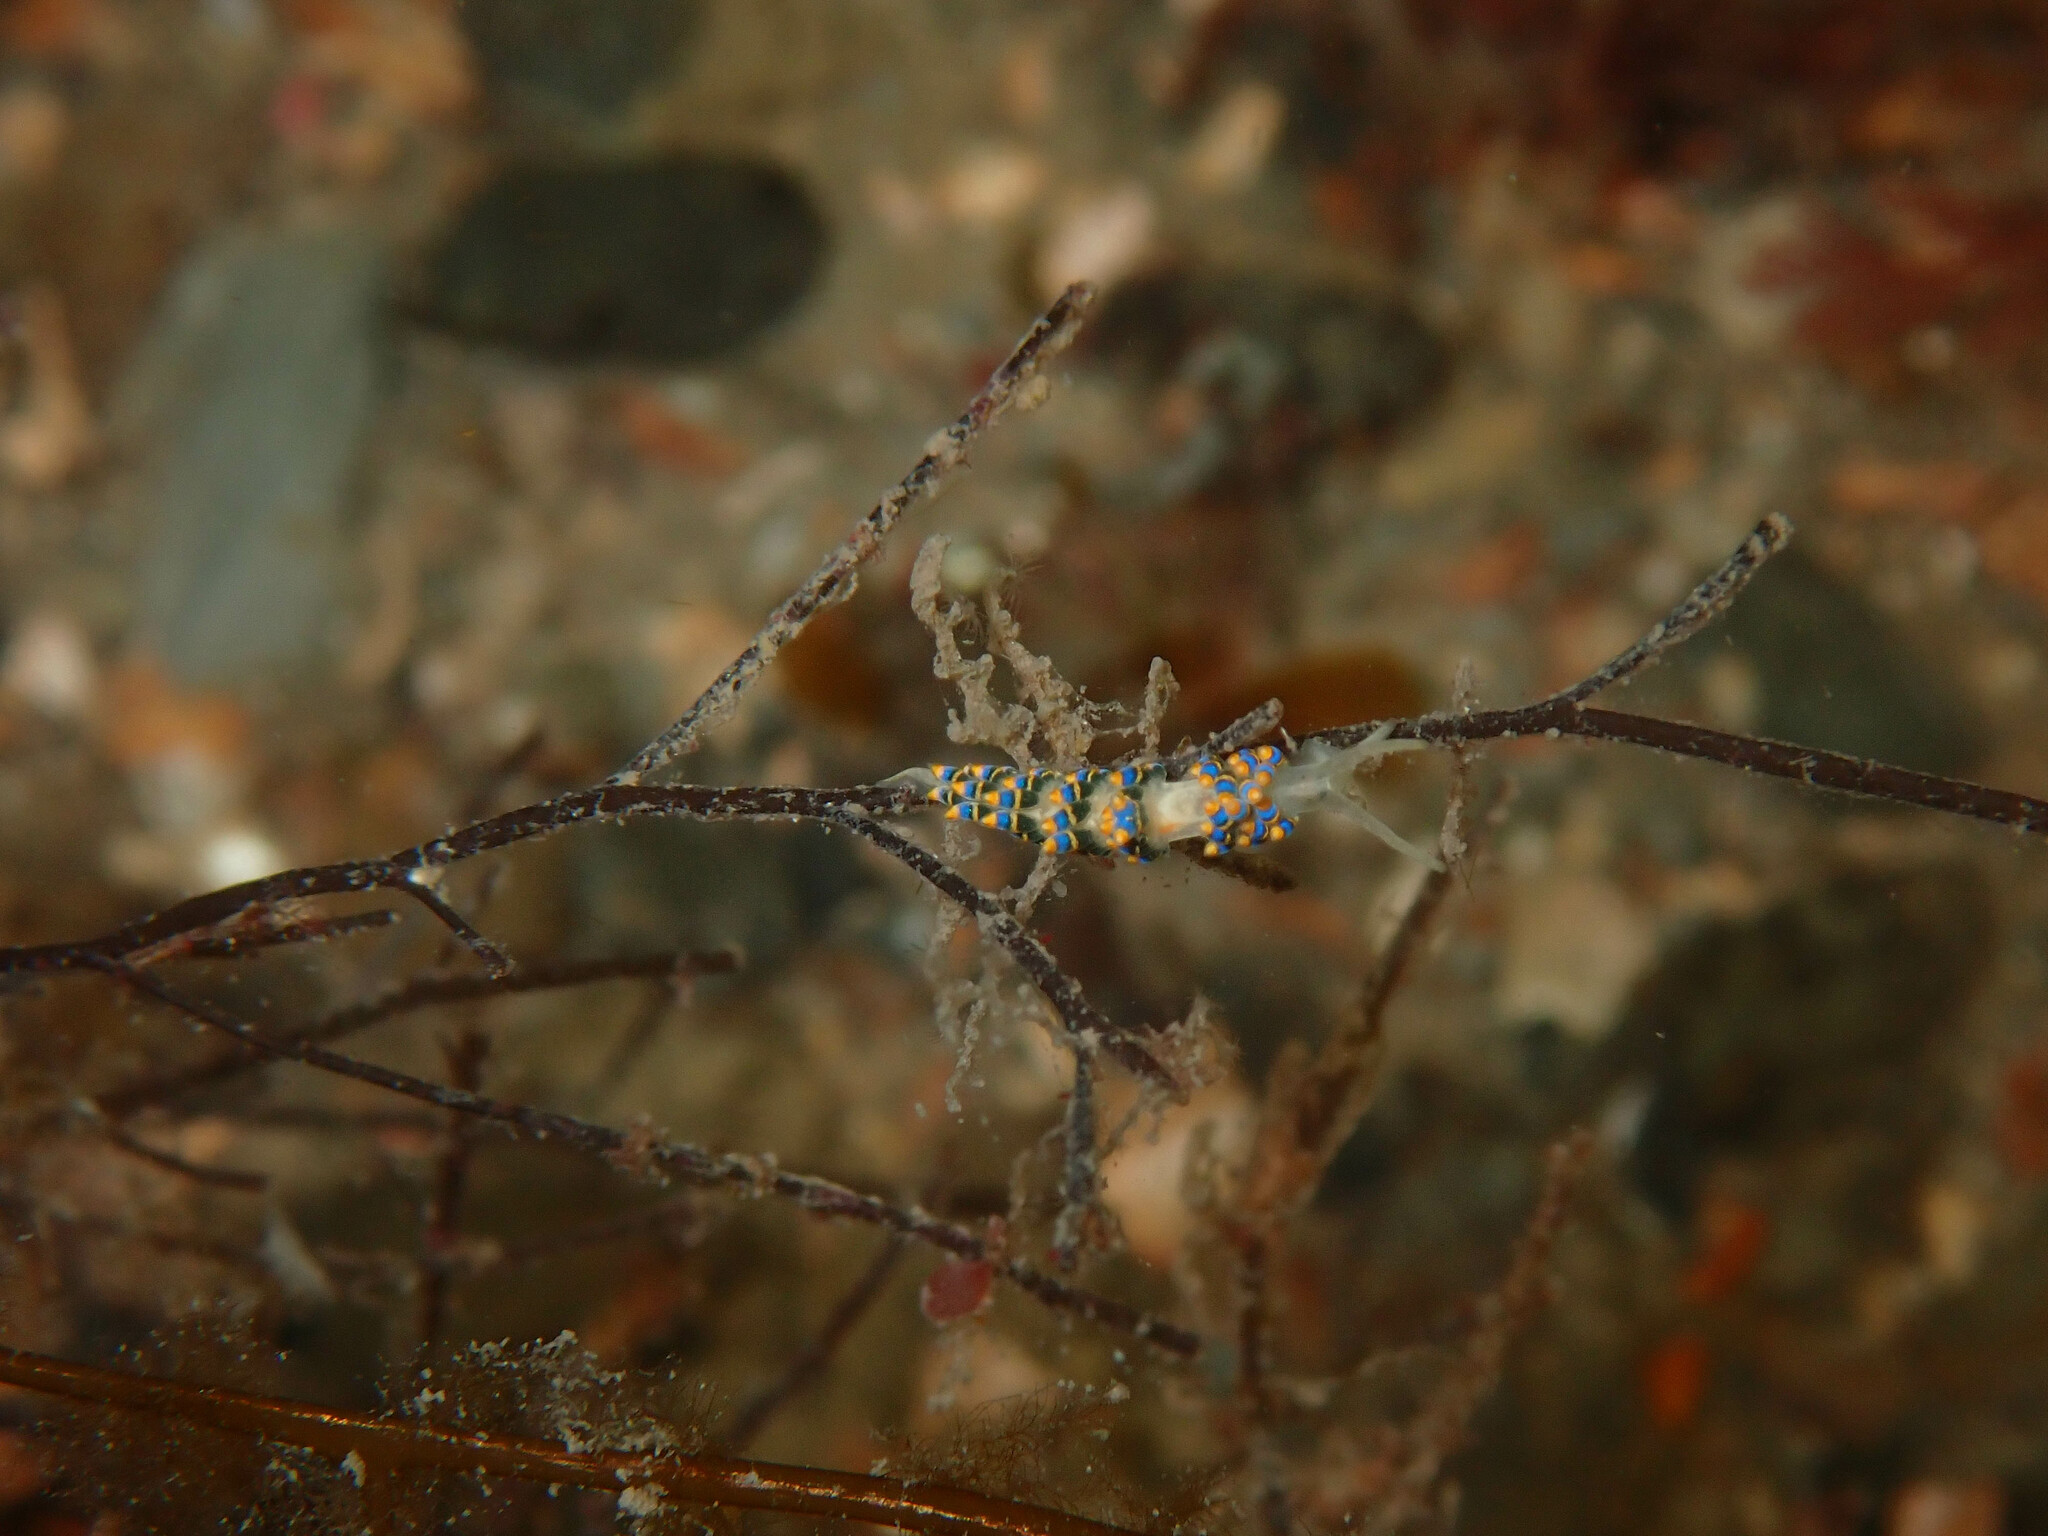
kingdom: Animalia
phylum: Mollusca
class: Gastropoda
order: Nudibranchia
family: Trinchesiidae
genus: Trinchesia
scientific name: Trinchesia cuanensis
